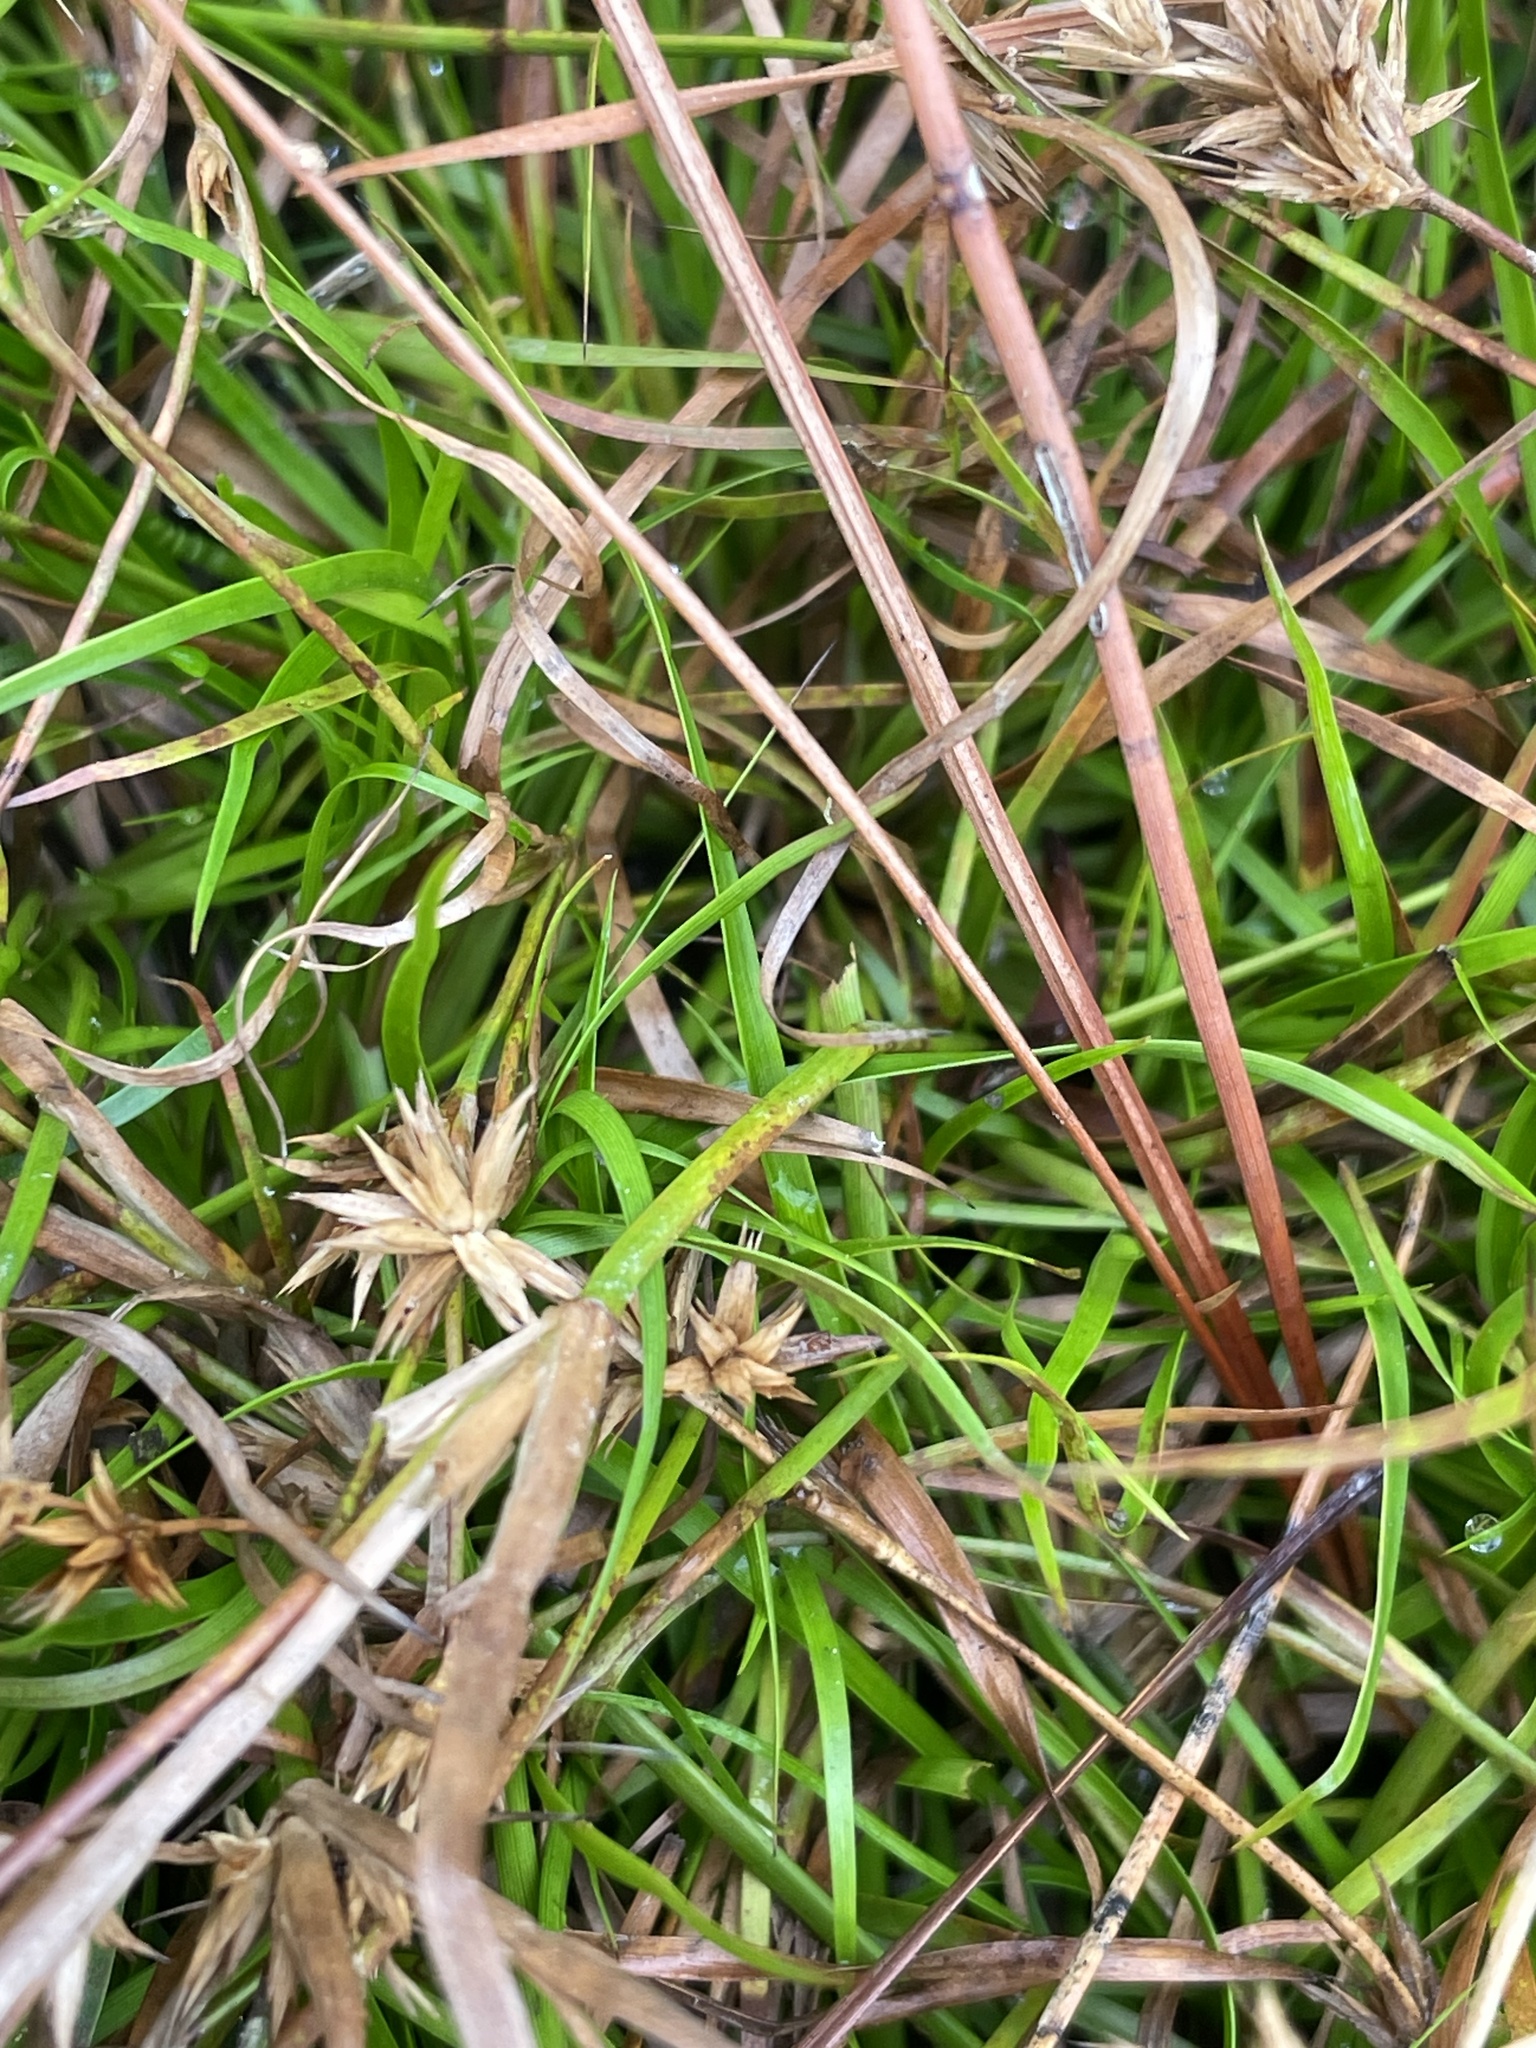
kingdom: Plantae
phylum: Tracheophyta
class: Liliopsida
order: Poales
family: Juncaceae
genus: Juncus
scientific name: Juncus repens
